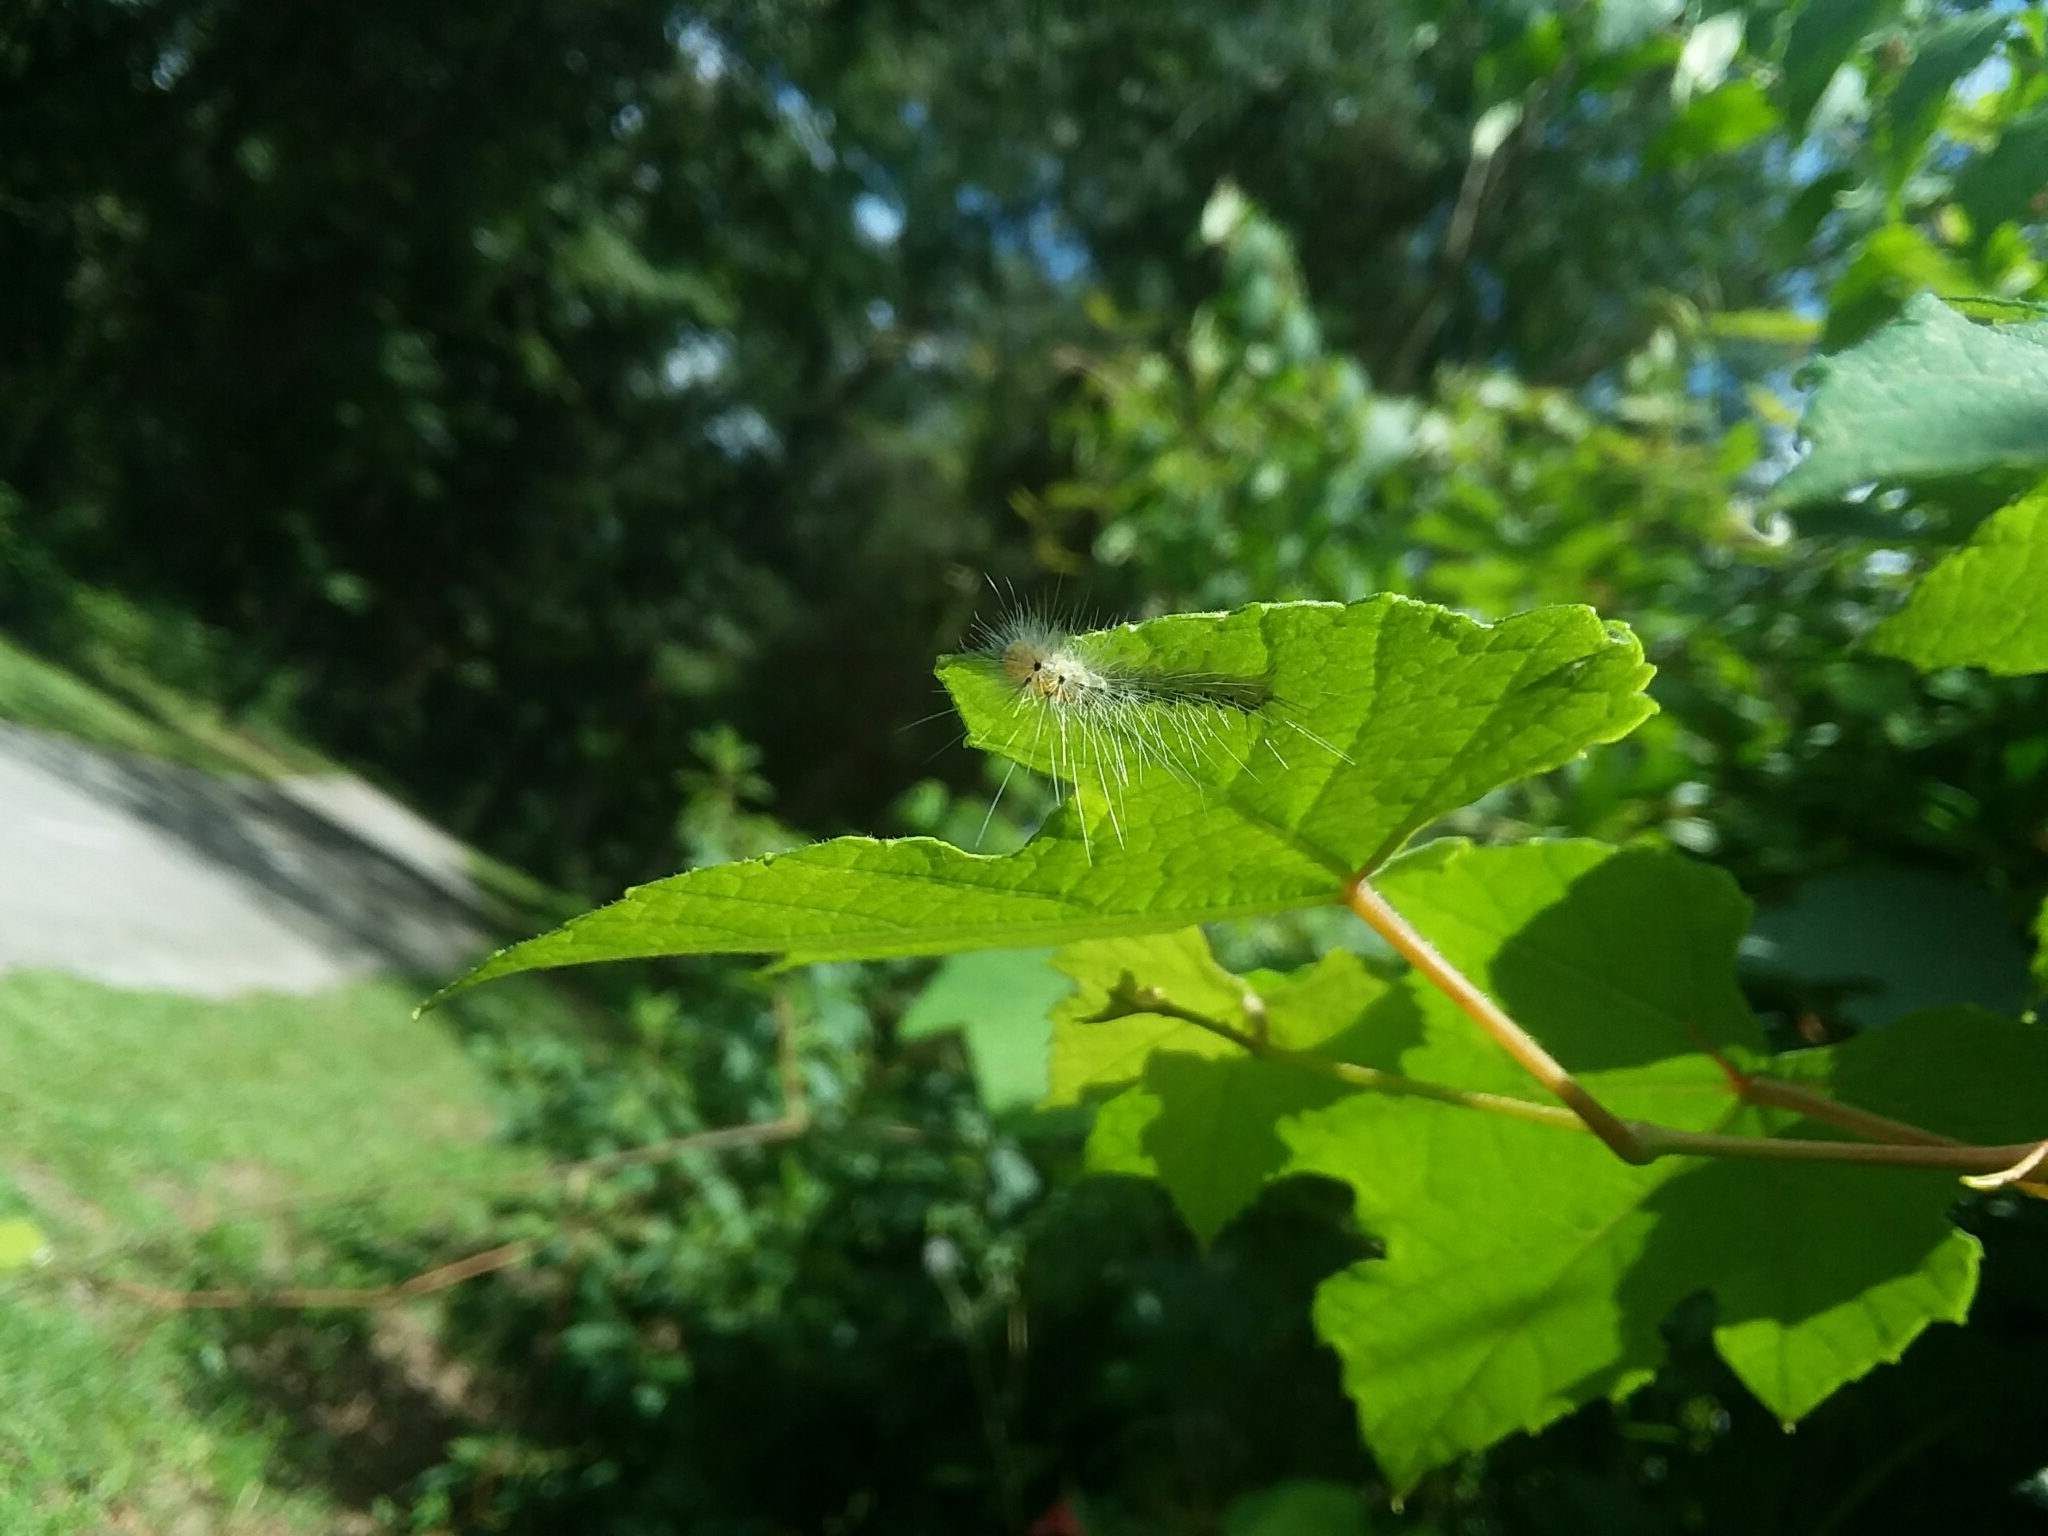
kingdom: Animalia
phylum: Arthropoda
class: Insecta
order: Lepidoptera
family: Erebidae
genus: Hyphantria
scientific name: Hyphantria cunea
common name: American white moth
